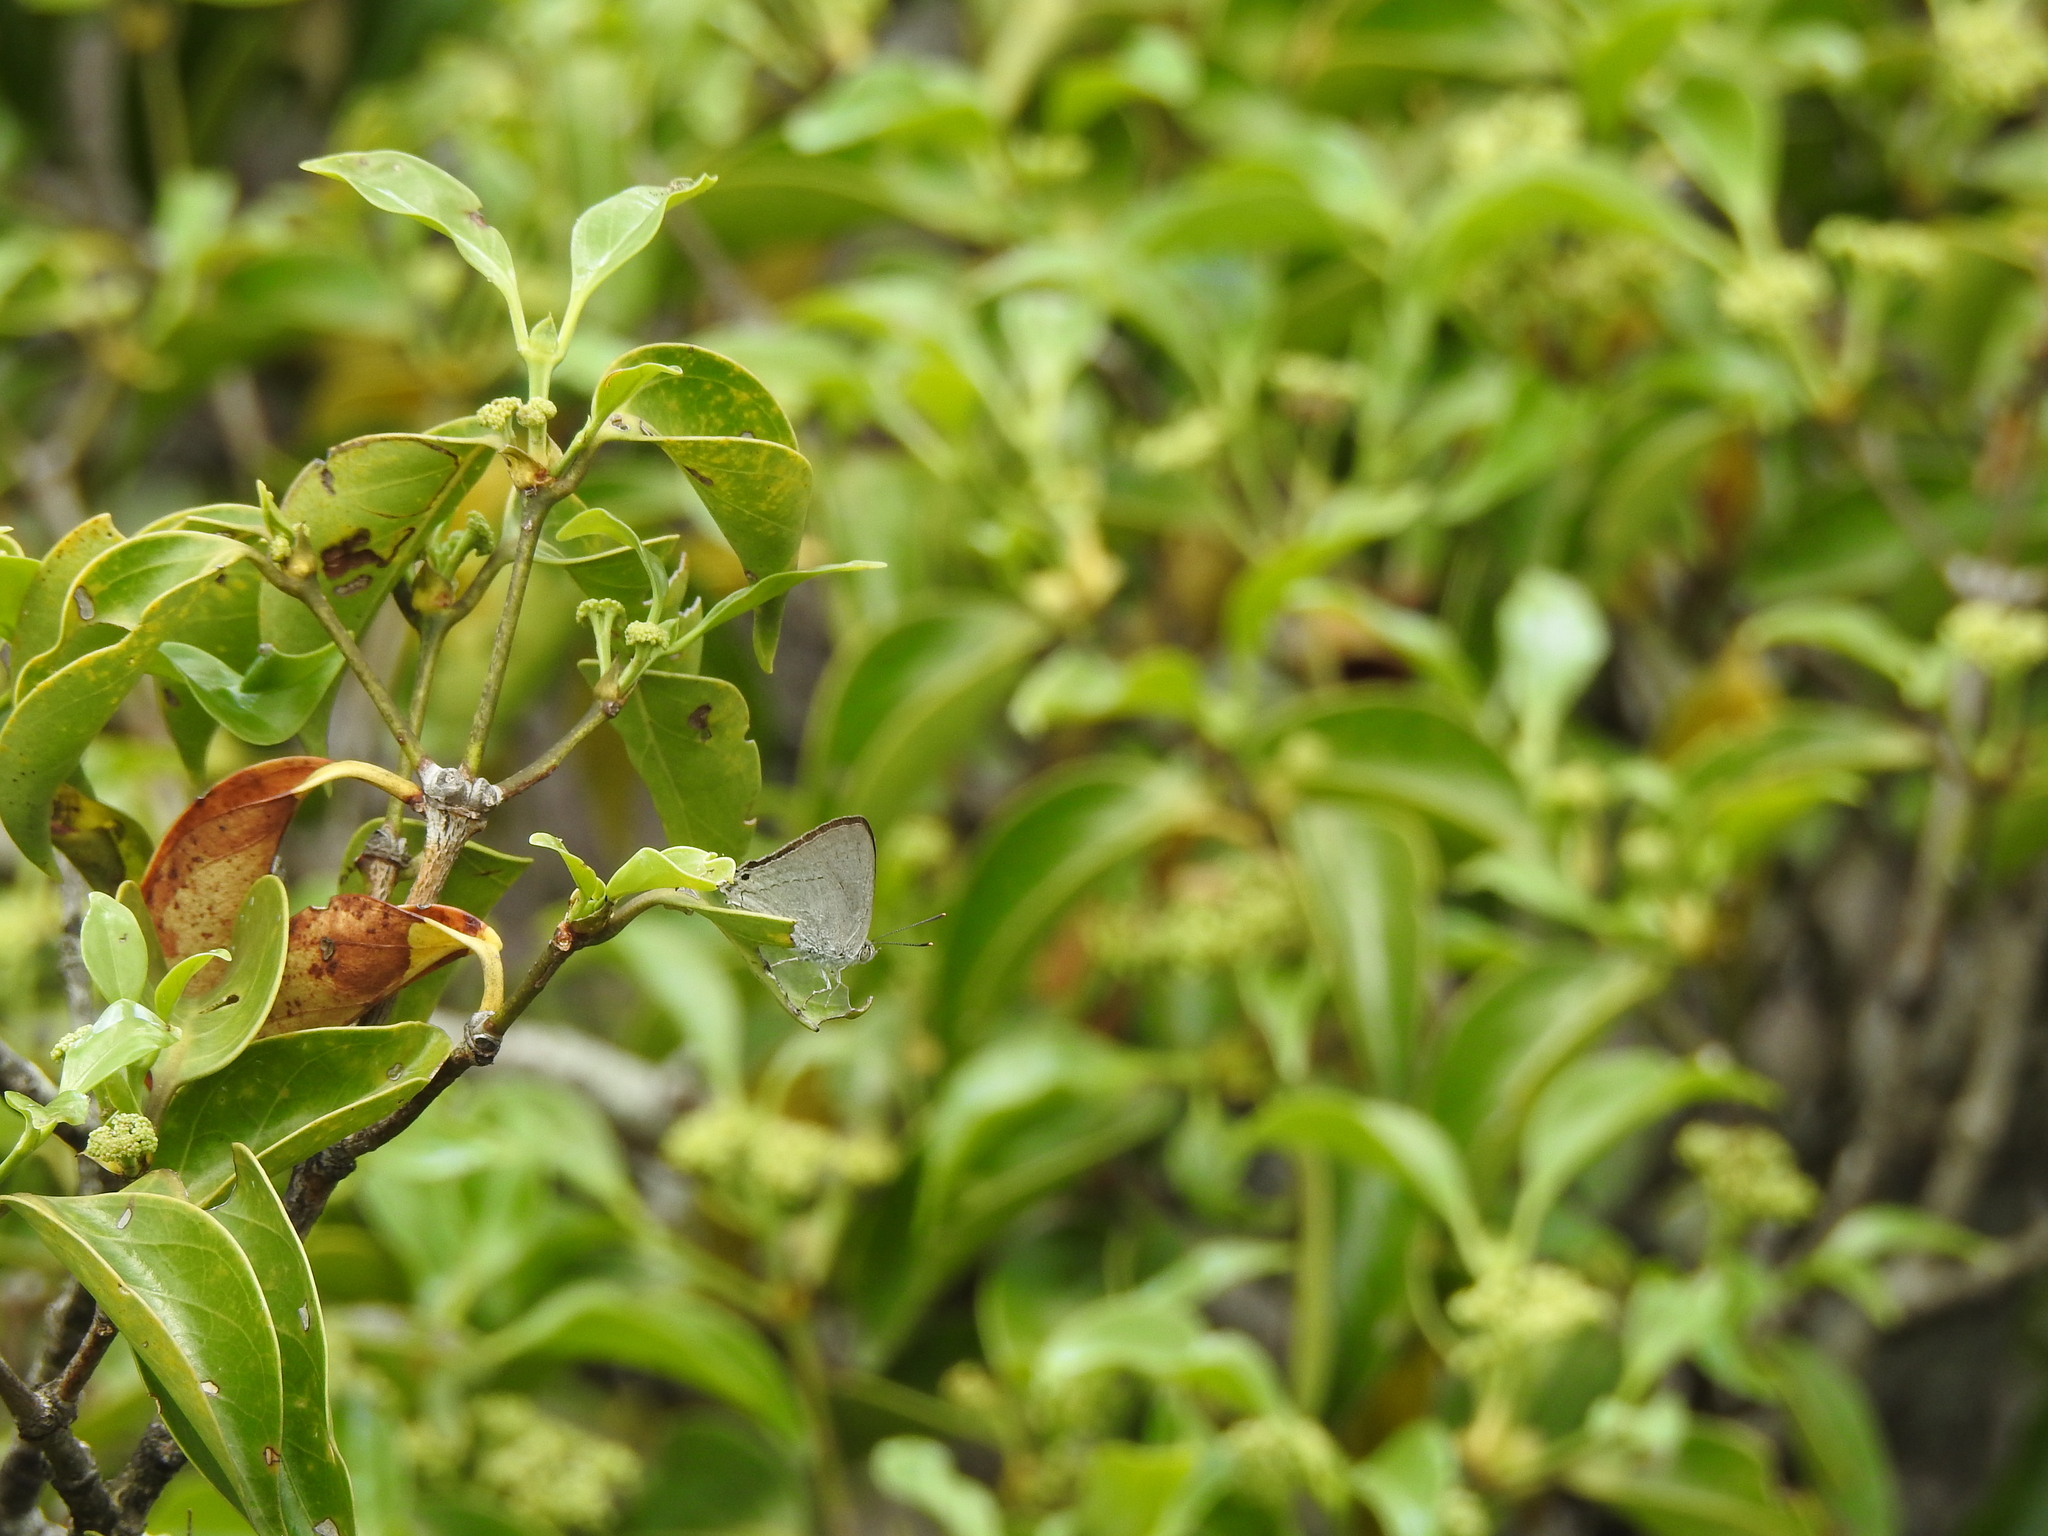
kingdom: Animalia
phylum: Arthropoda
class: Insecta
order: Lepidoptera
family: Lycaenidae
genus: Pratapa
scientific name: Pratapa deva
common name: White royal
